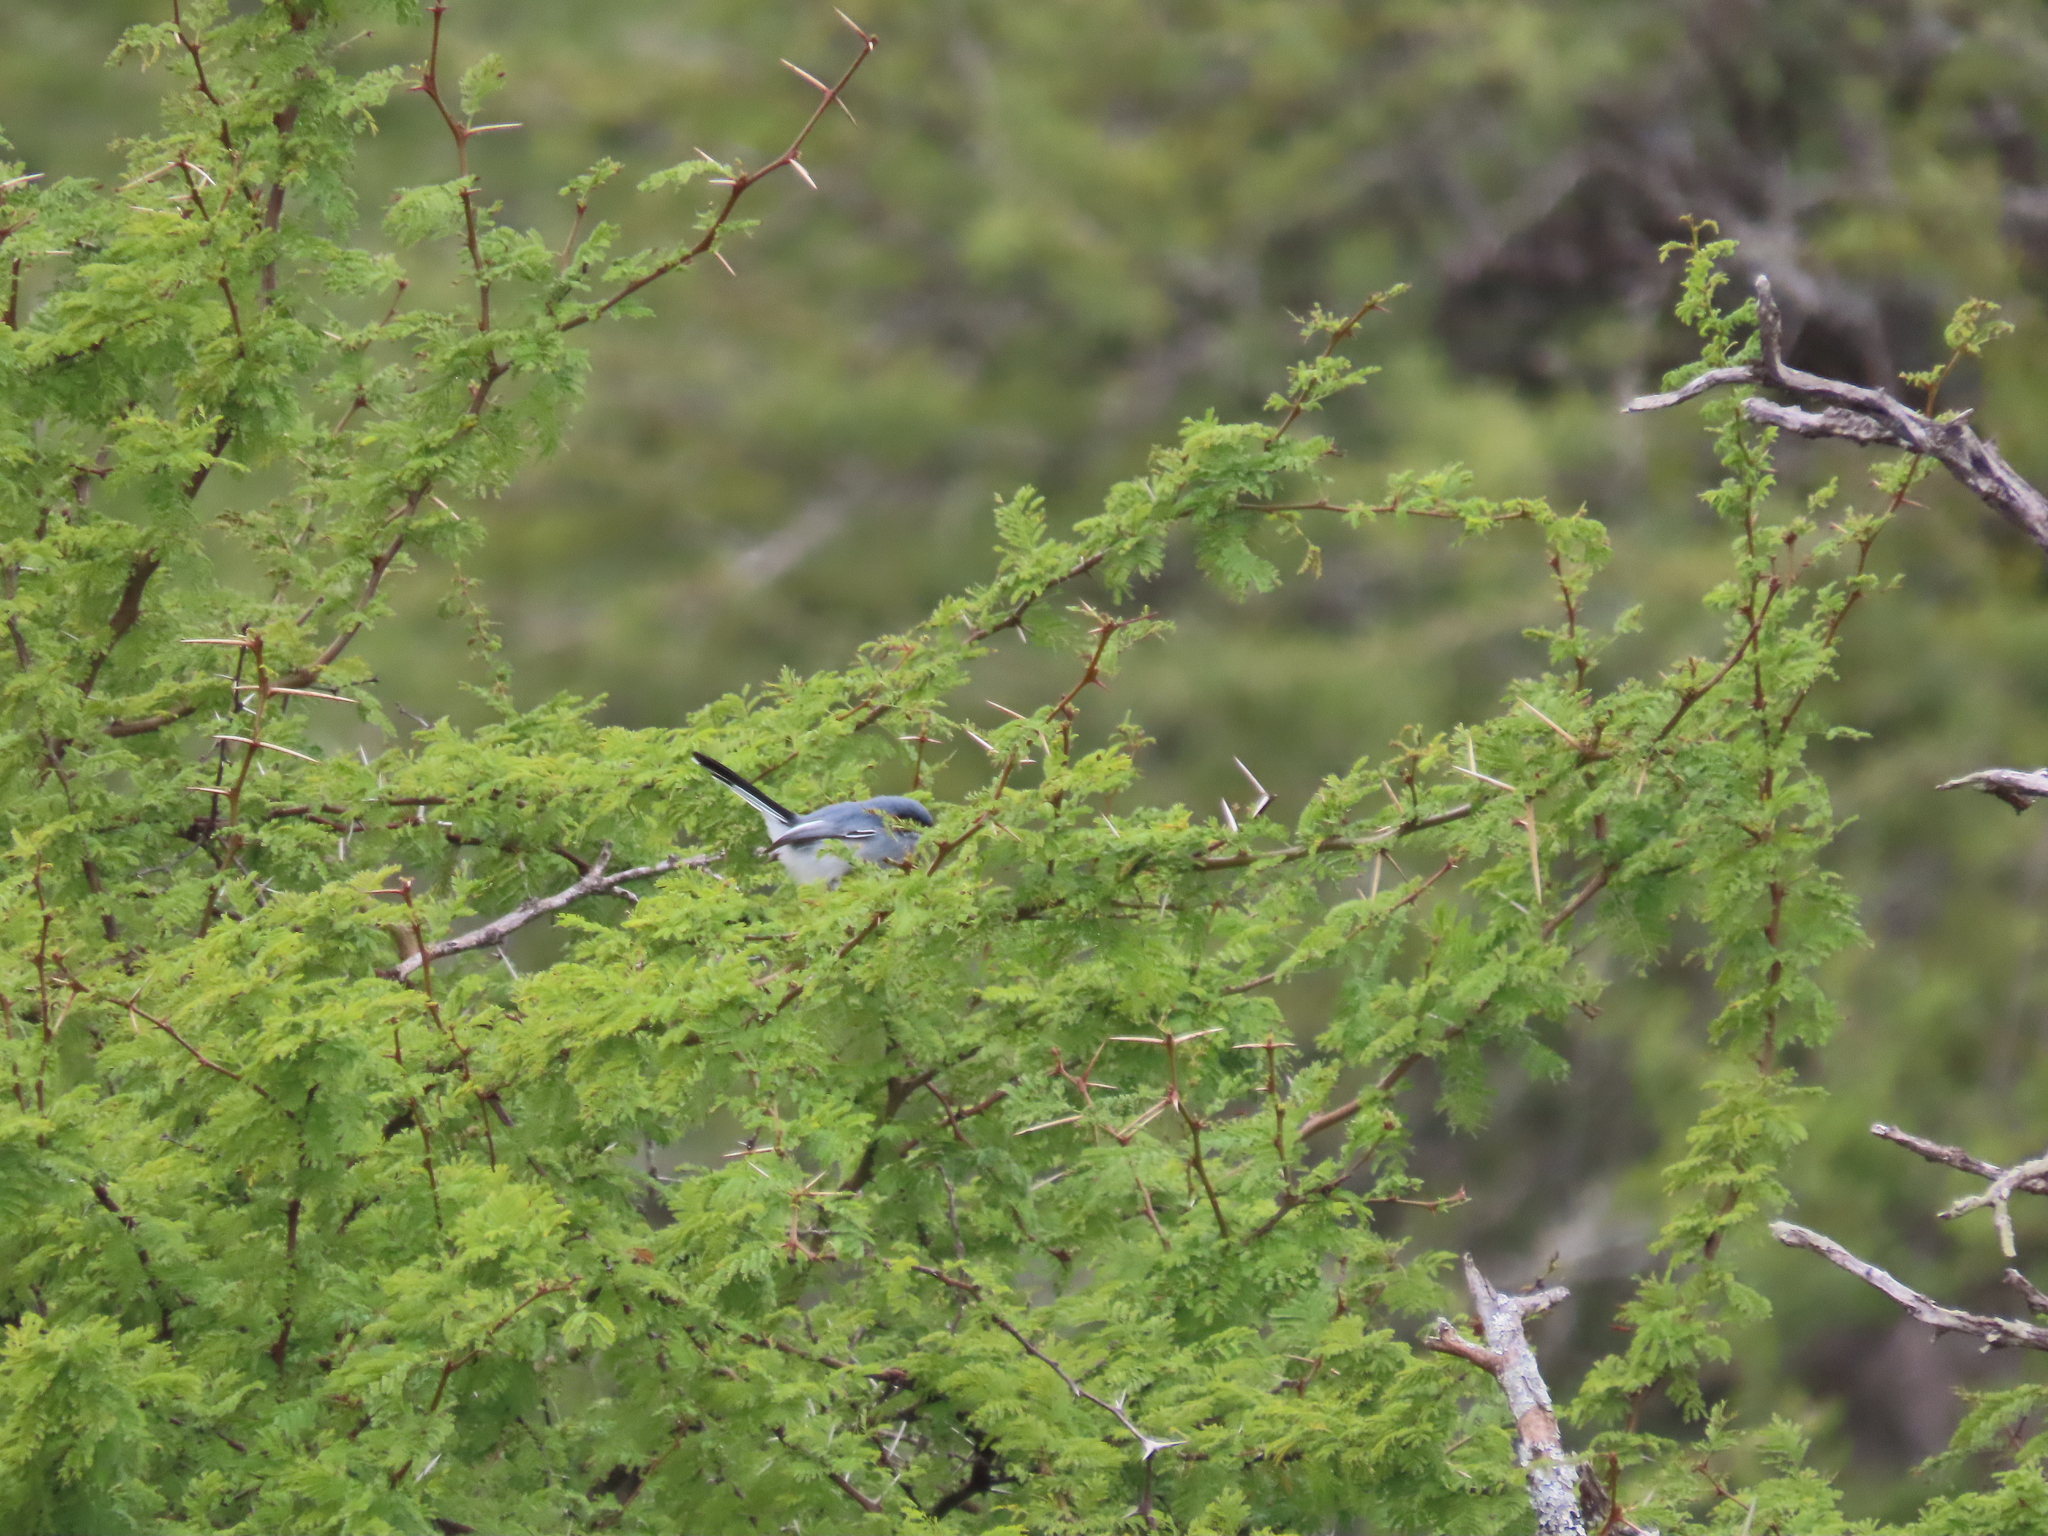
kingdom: Animalia
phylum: Chordata
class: Aves
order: Passeriformes
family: Polioptilidae
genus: Polioptila
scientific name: Polioptila dumicola
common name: Masked gnatcatcher
